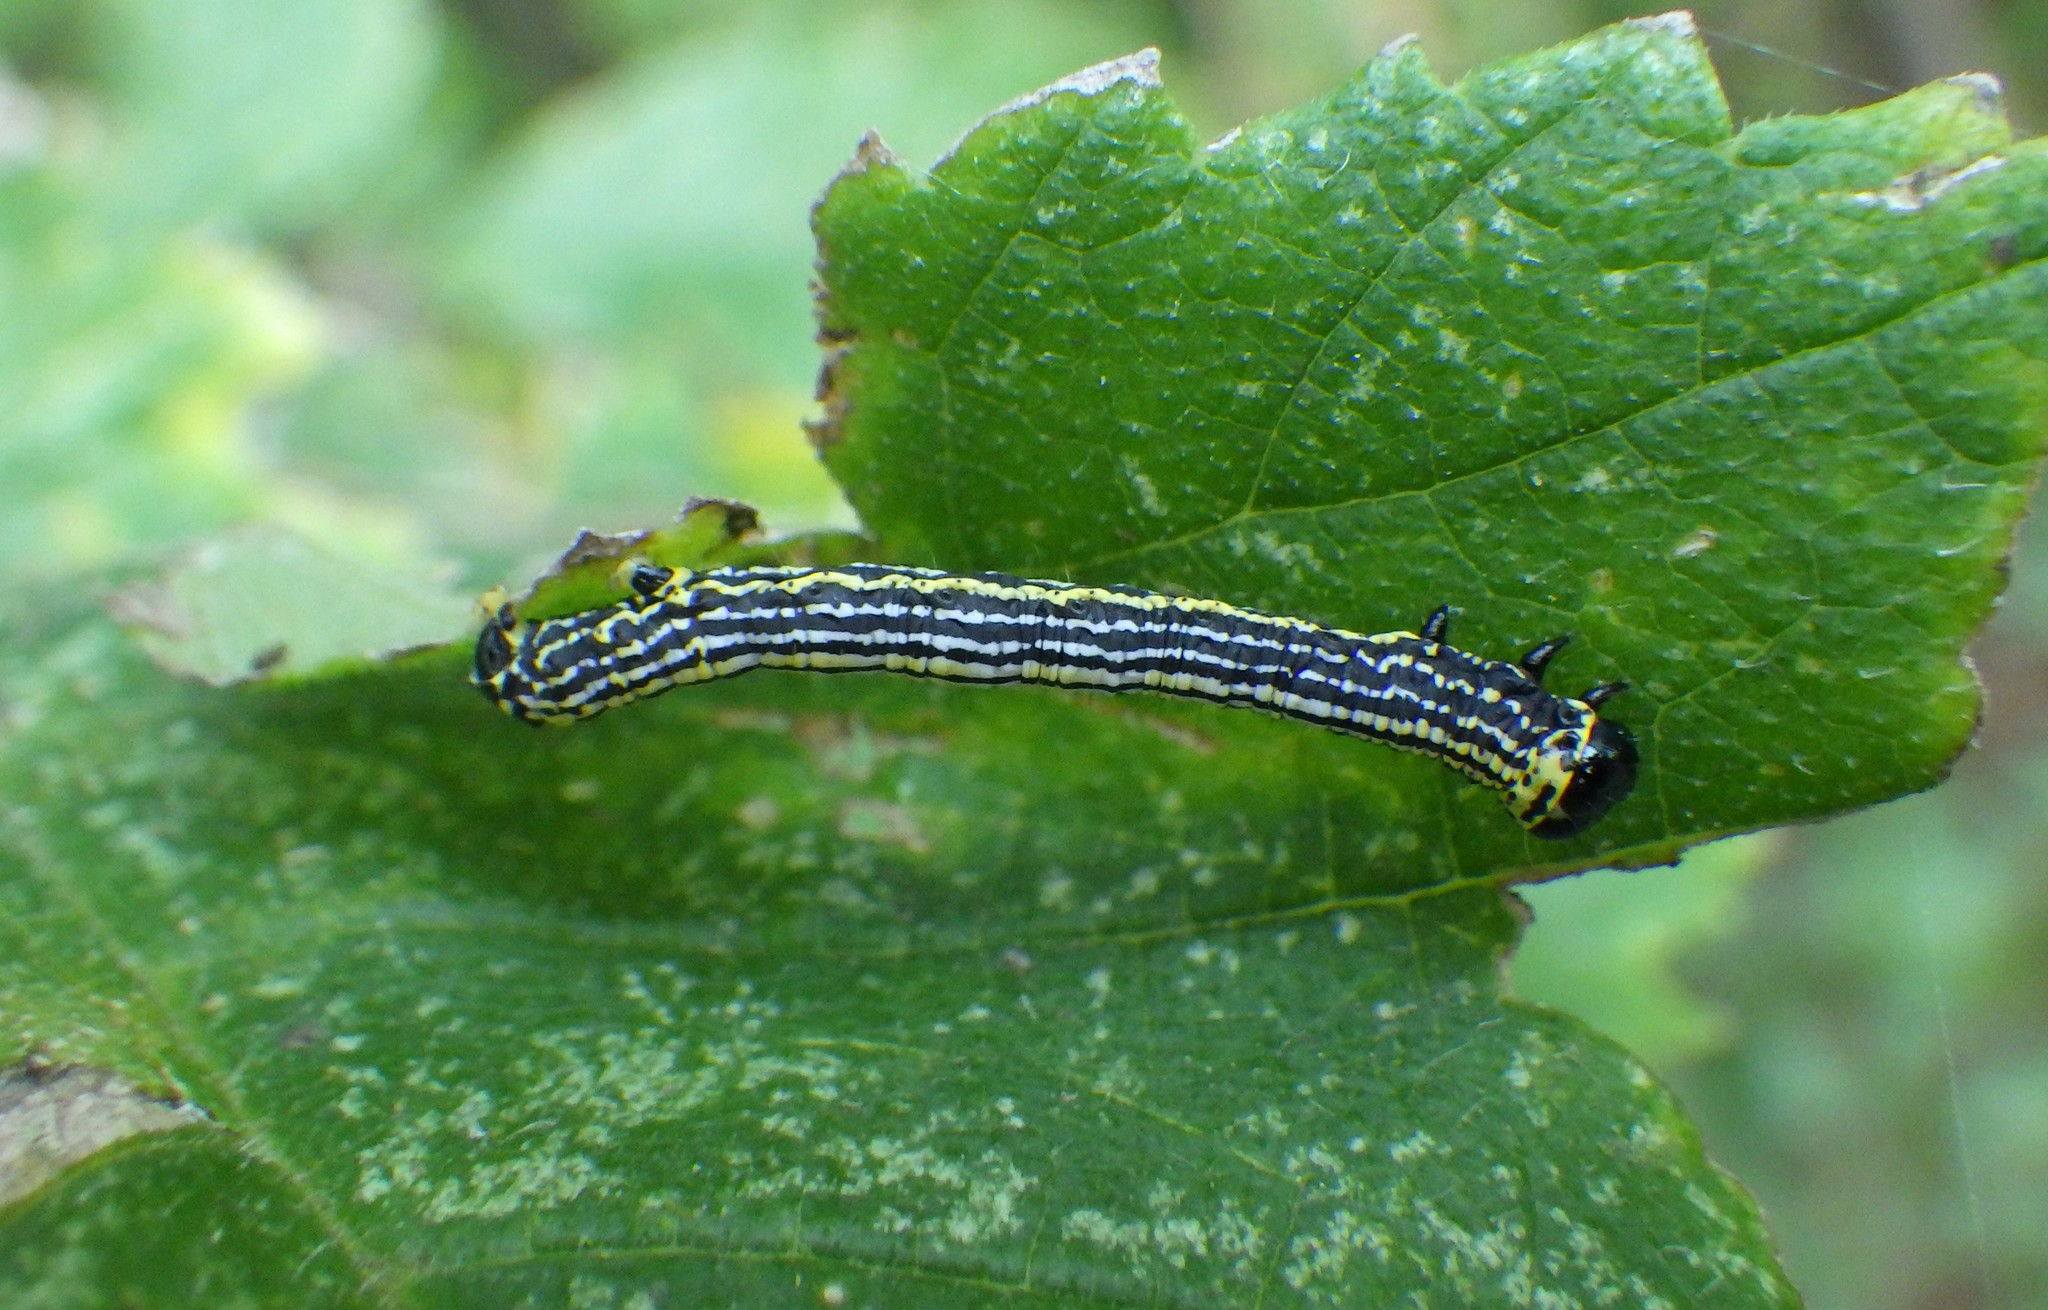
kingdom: Animalia
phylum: Arthropoda
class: Insecta
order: Lepidoptera
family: Geometridae
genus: Abraxas
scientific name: Abraxas sylvata
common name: Clouded magpie
